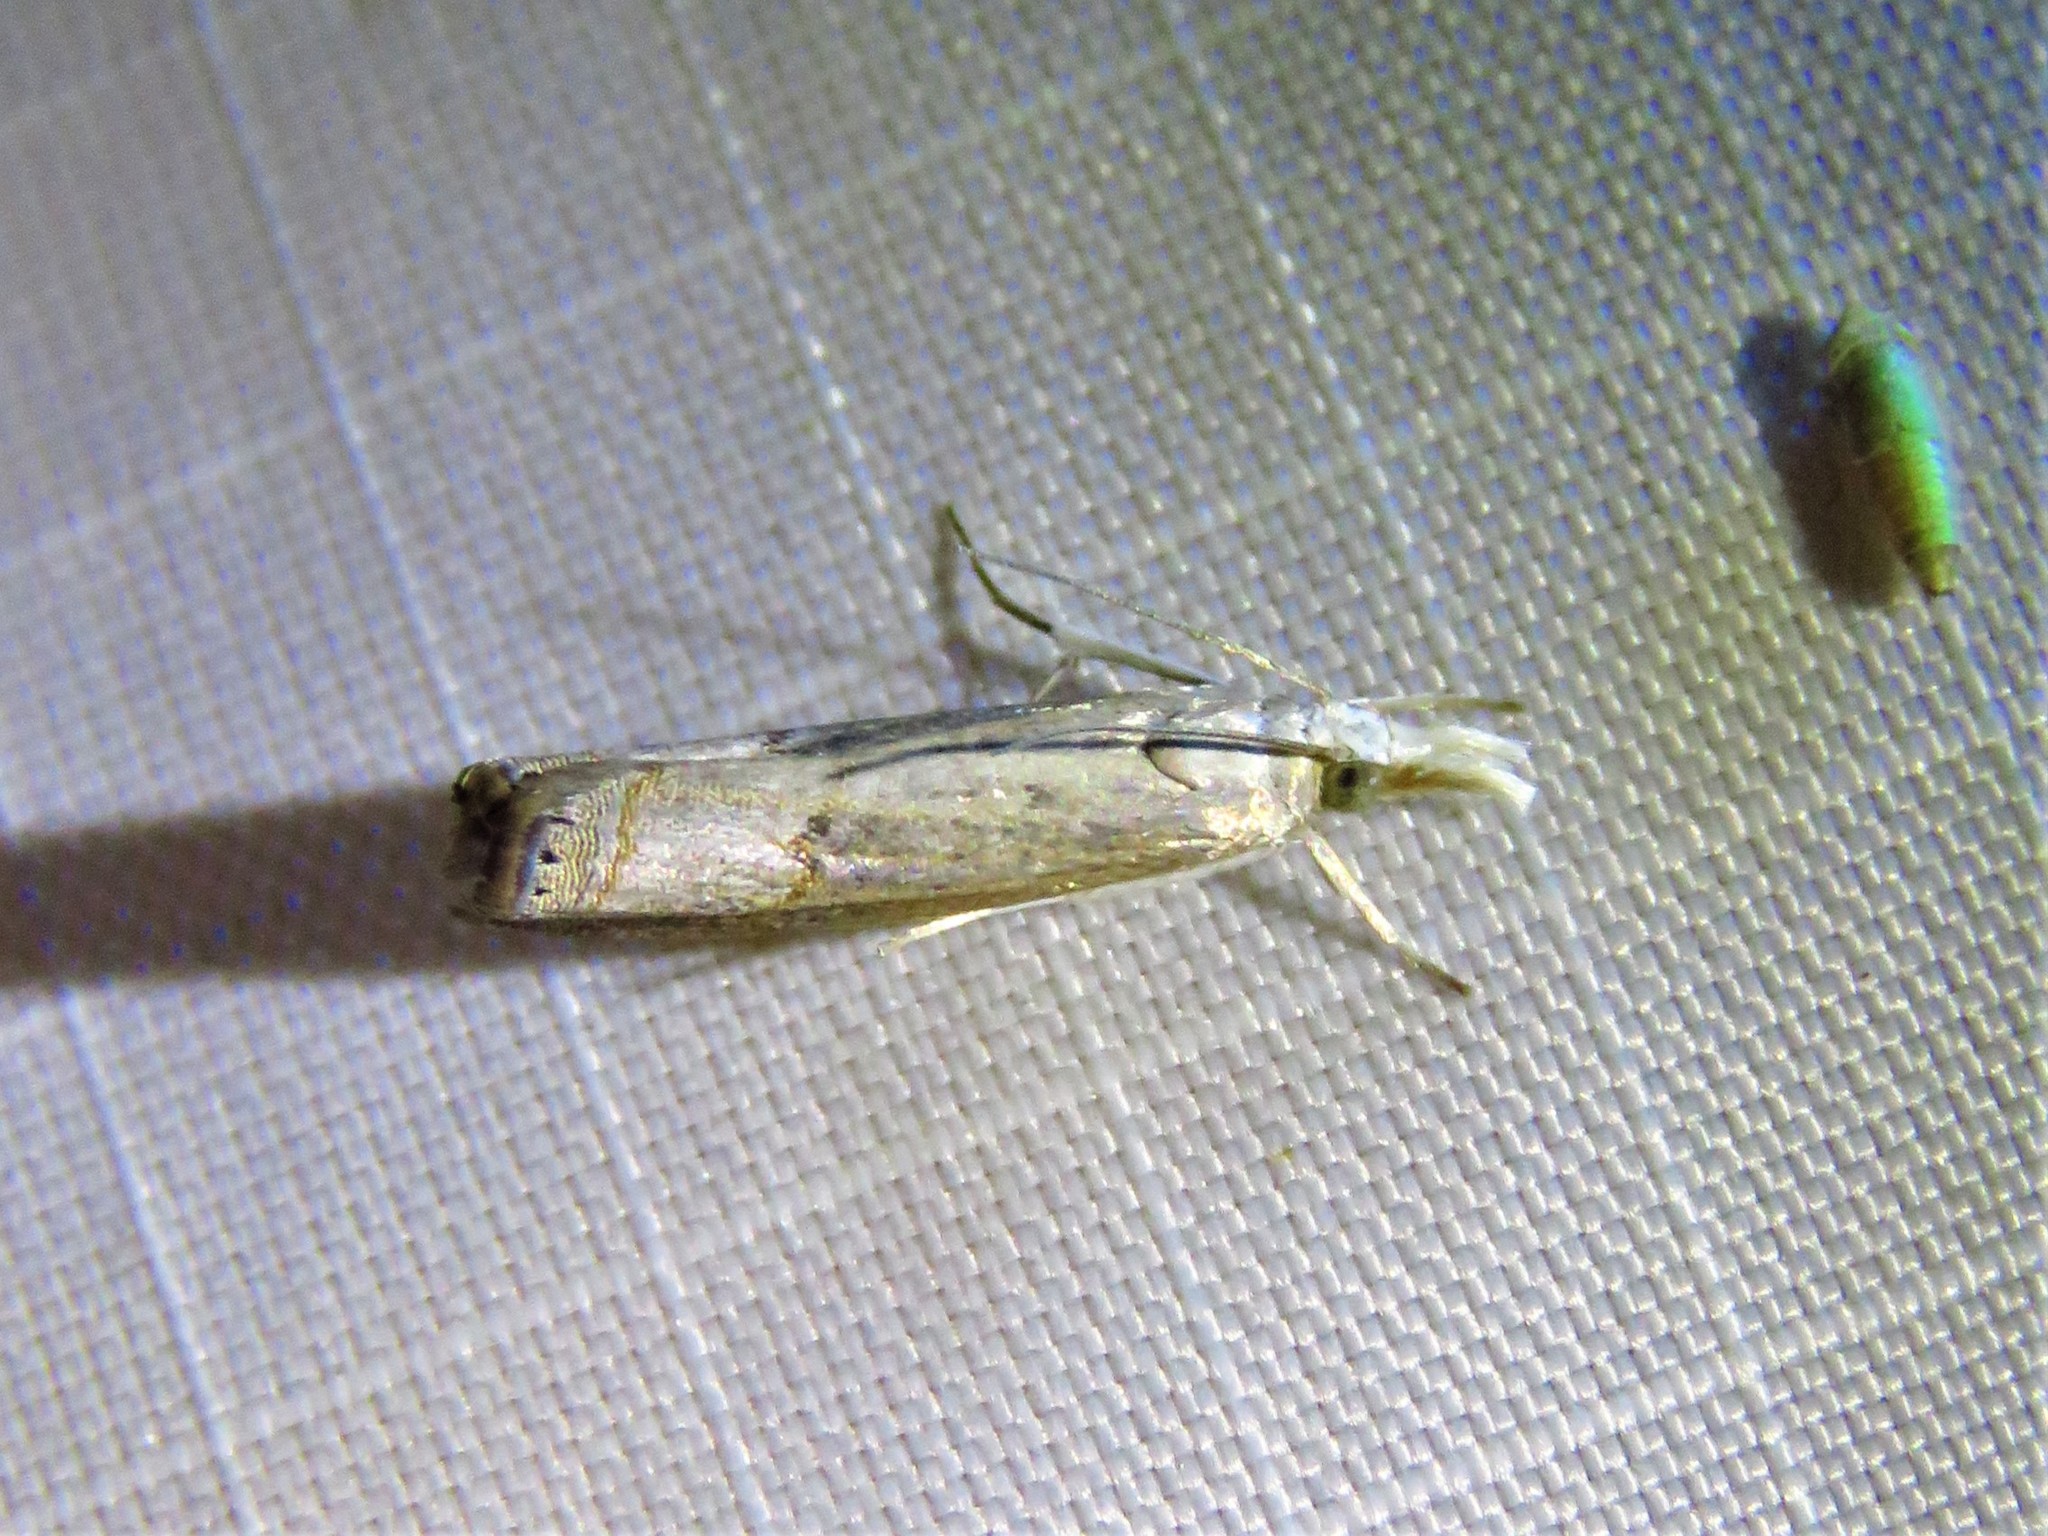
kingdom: Animalia
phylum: Arthropoda
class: Insecta
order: Lepidoptera
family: Crambidae
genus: Parapediasia
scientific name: Parapediasia teterellus
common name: Bluegrass webworm moth
